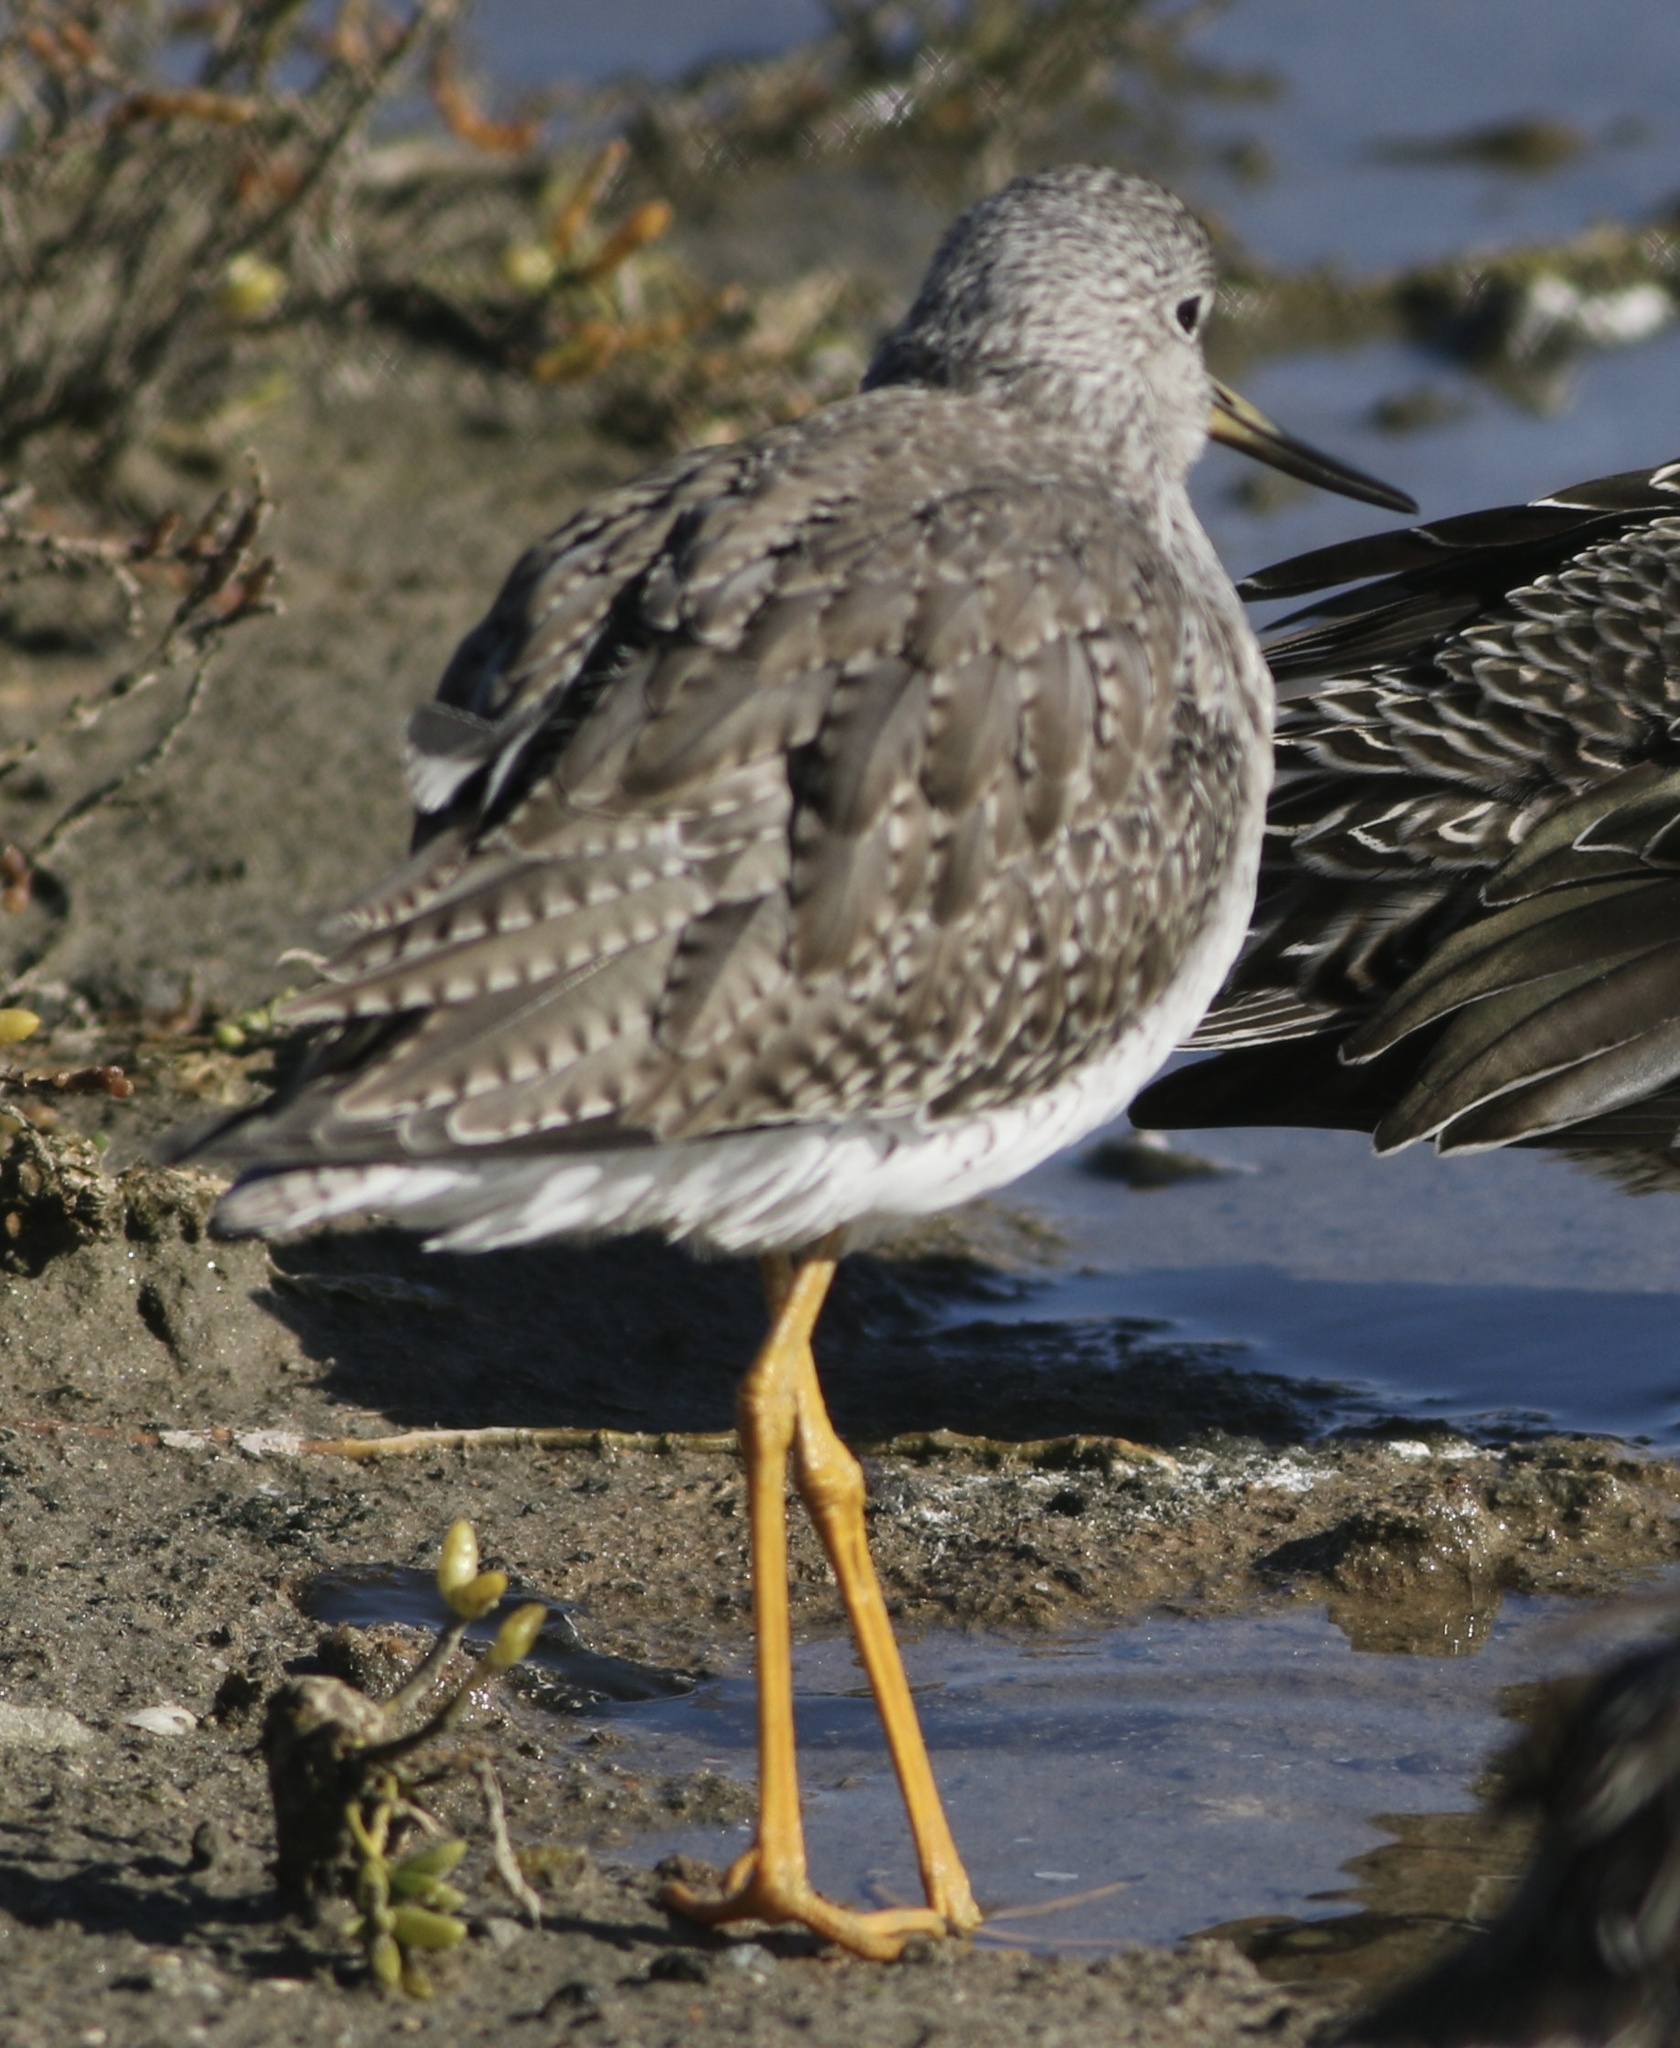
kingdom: Animalia
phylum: Chordata
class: Aves
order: Charadriiformes
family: Scolopacidae
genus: Tringa
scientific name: Tringa melanoleuca
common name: Greater yellowlegs
